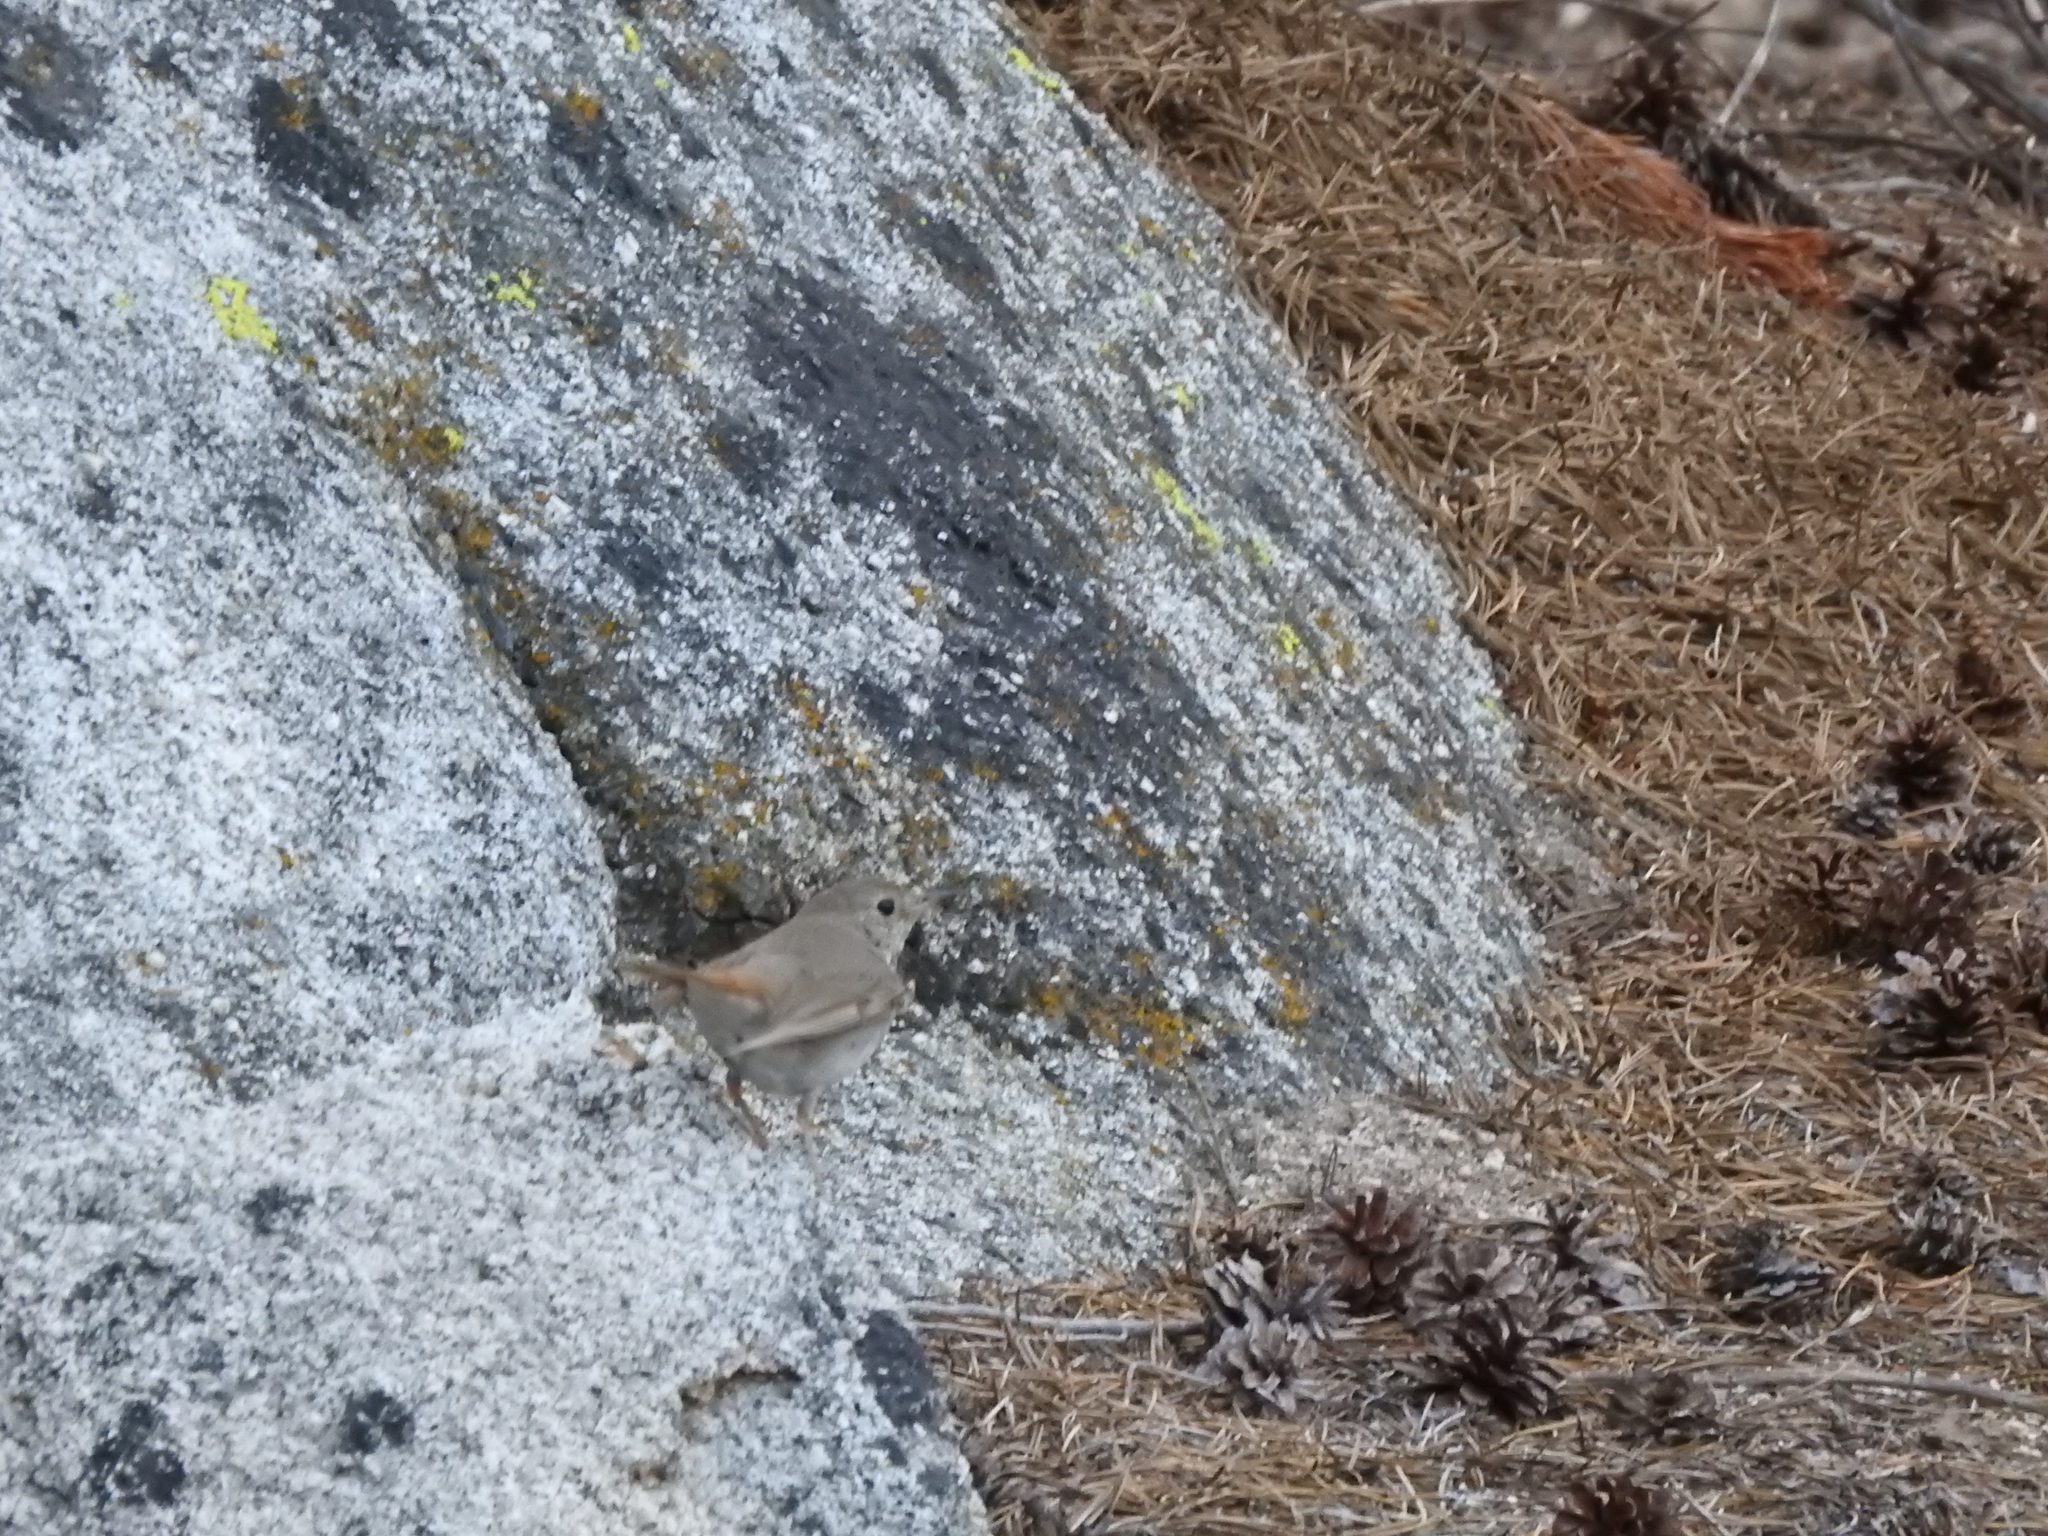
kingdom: Animalia
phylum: Chordata
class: Aves
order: Passeriformes
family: Turdidae
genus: Catharus
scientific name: Catharus guttatus
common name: Hermit thrush
